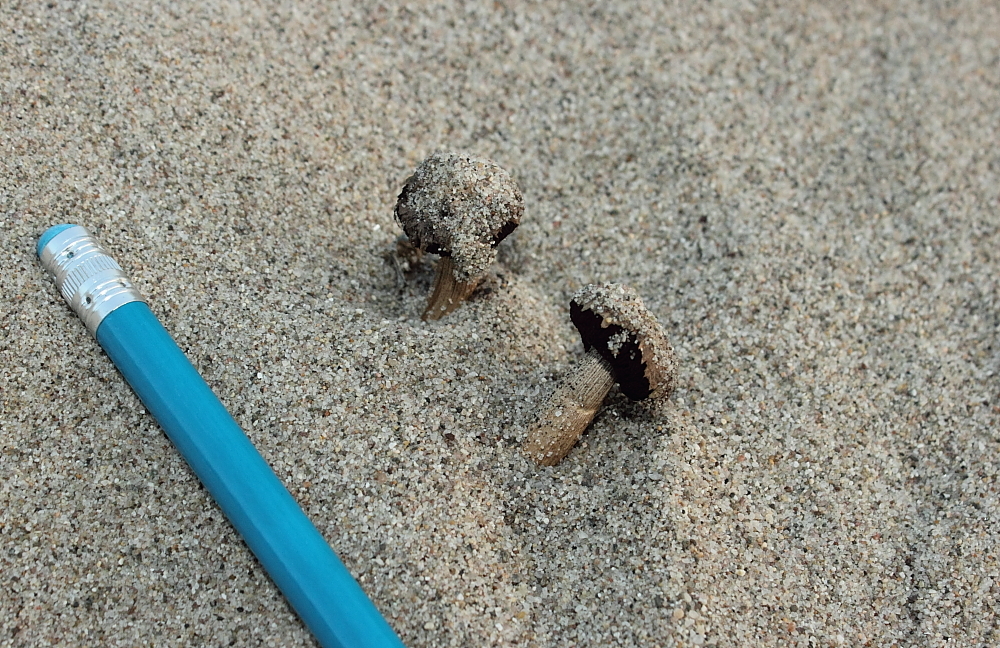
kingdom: Fungi
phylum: Basidiomycota
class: Agaricomycetes
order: Agaricales
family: Agaricaceae
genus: Agaricus
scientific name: Agaricus zelleri
